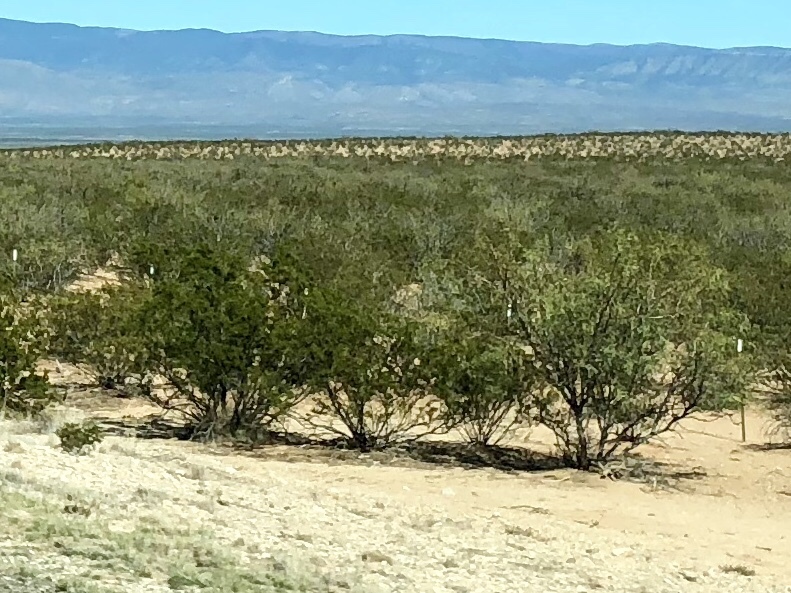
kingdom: Plantae
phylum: Tracheophyta
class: Magnoliopsida
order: Zygophyllales
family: Zygophyllaceae
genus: Larrea
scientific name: Larrea tridentata
